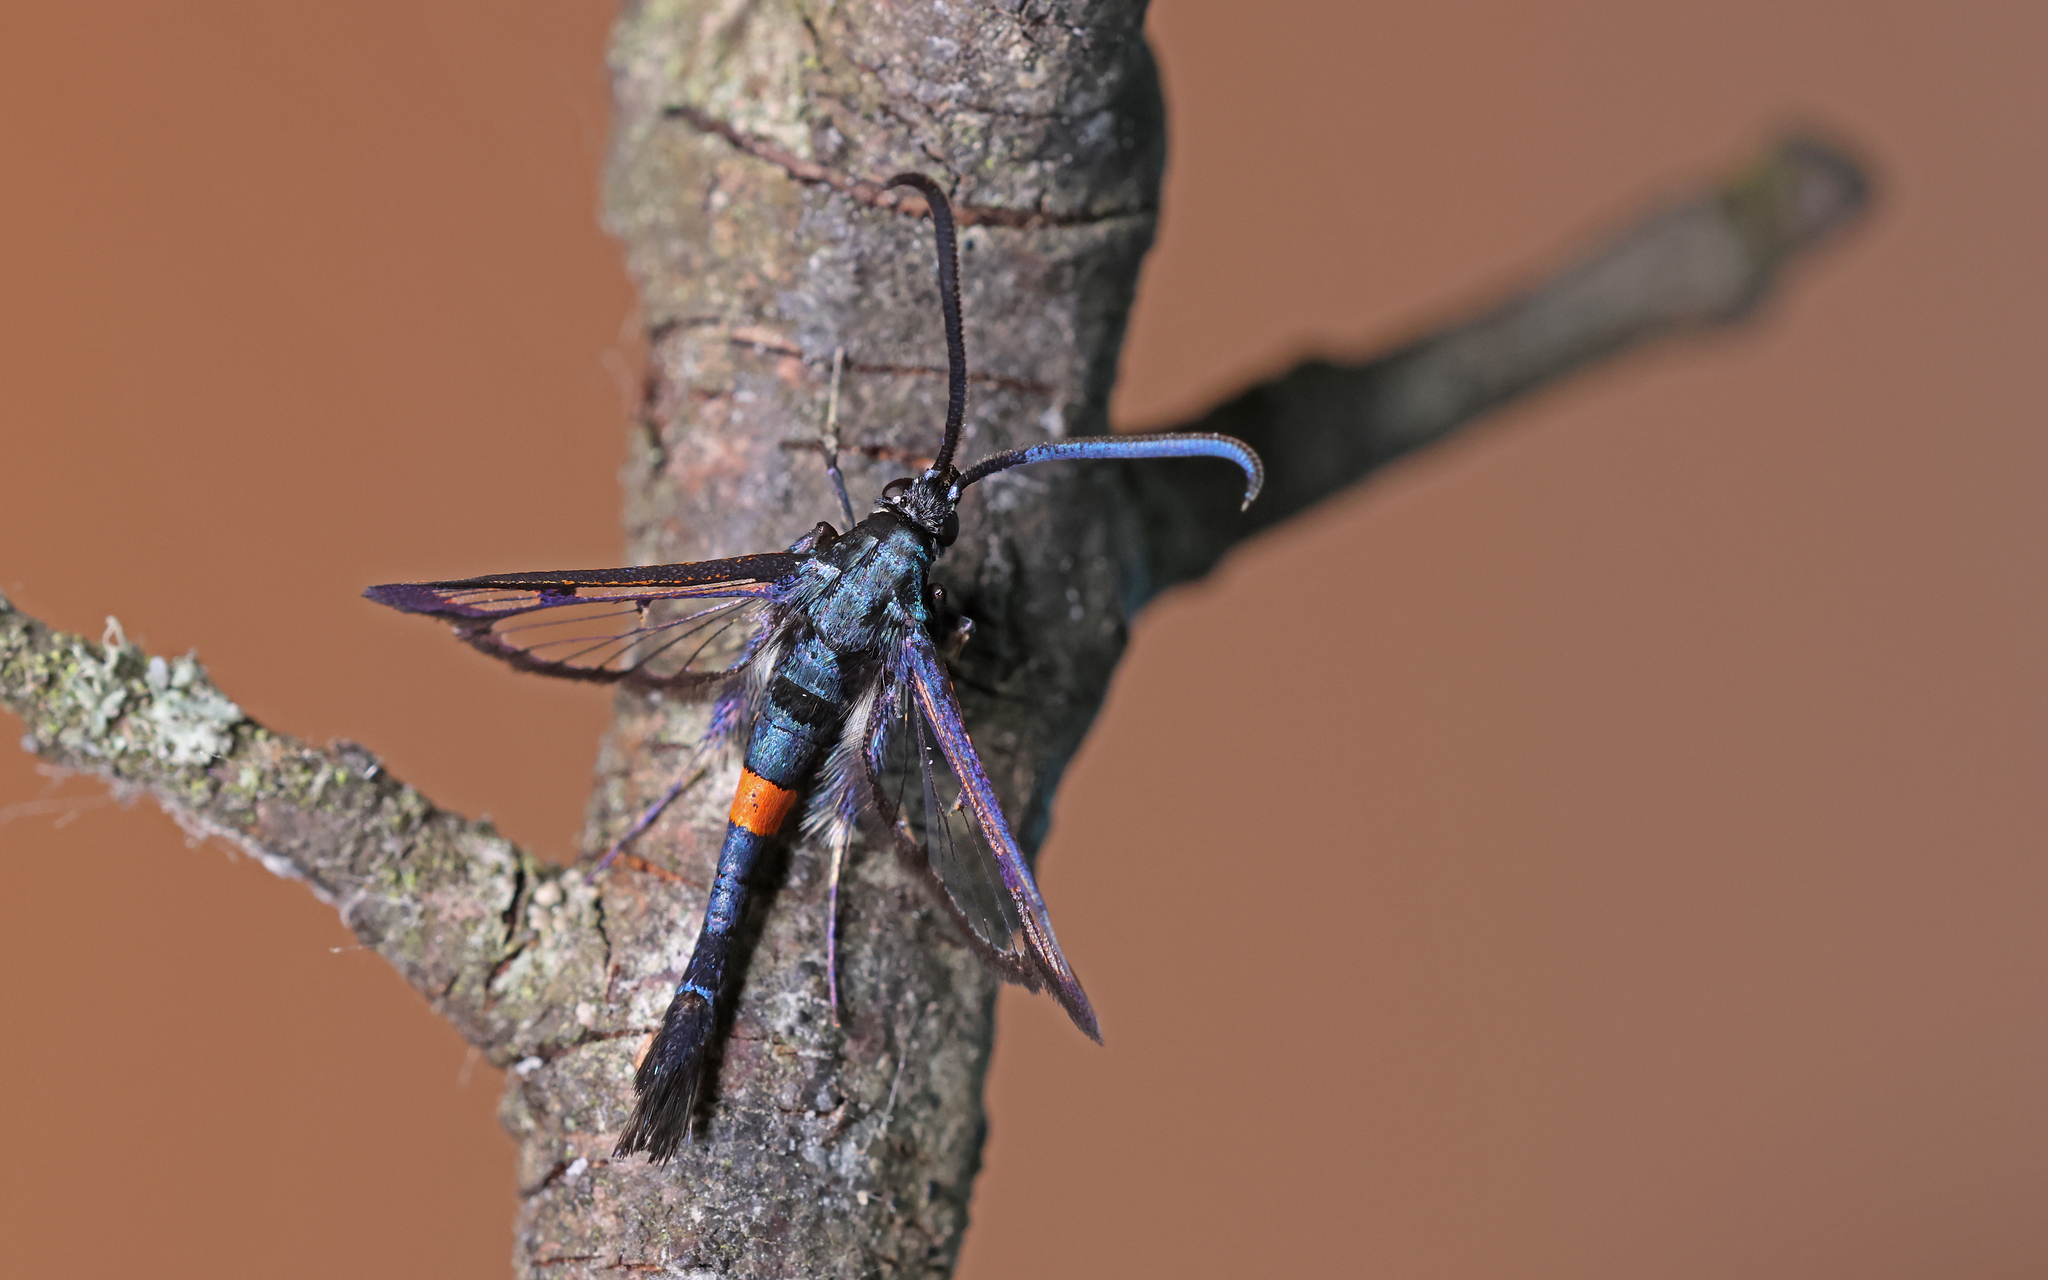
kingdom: Animalia
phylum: Arthropoda
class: Insecta
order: Lepidoptera
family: Sesiidae
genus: Synanthedon
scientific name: Synanthedon myopaeformis
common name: Red-belted clearwing
